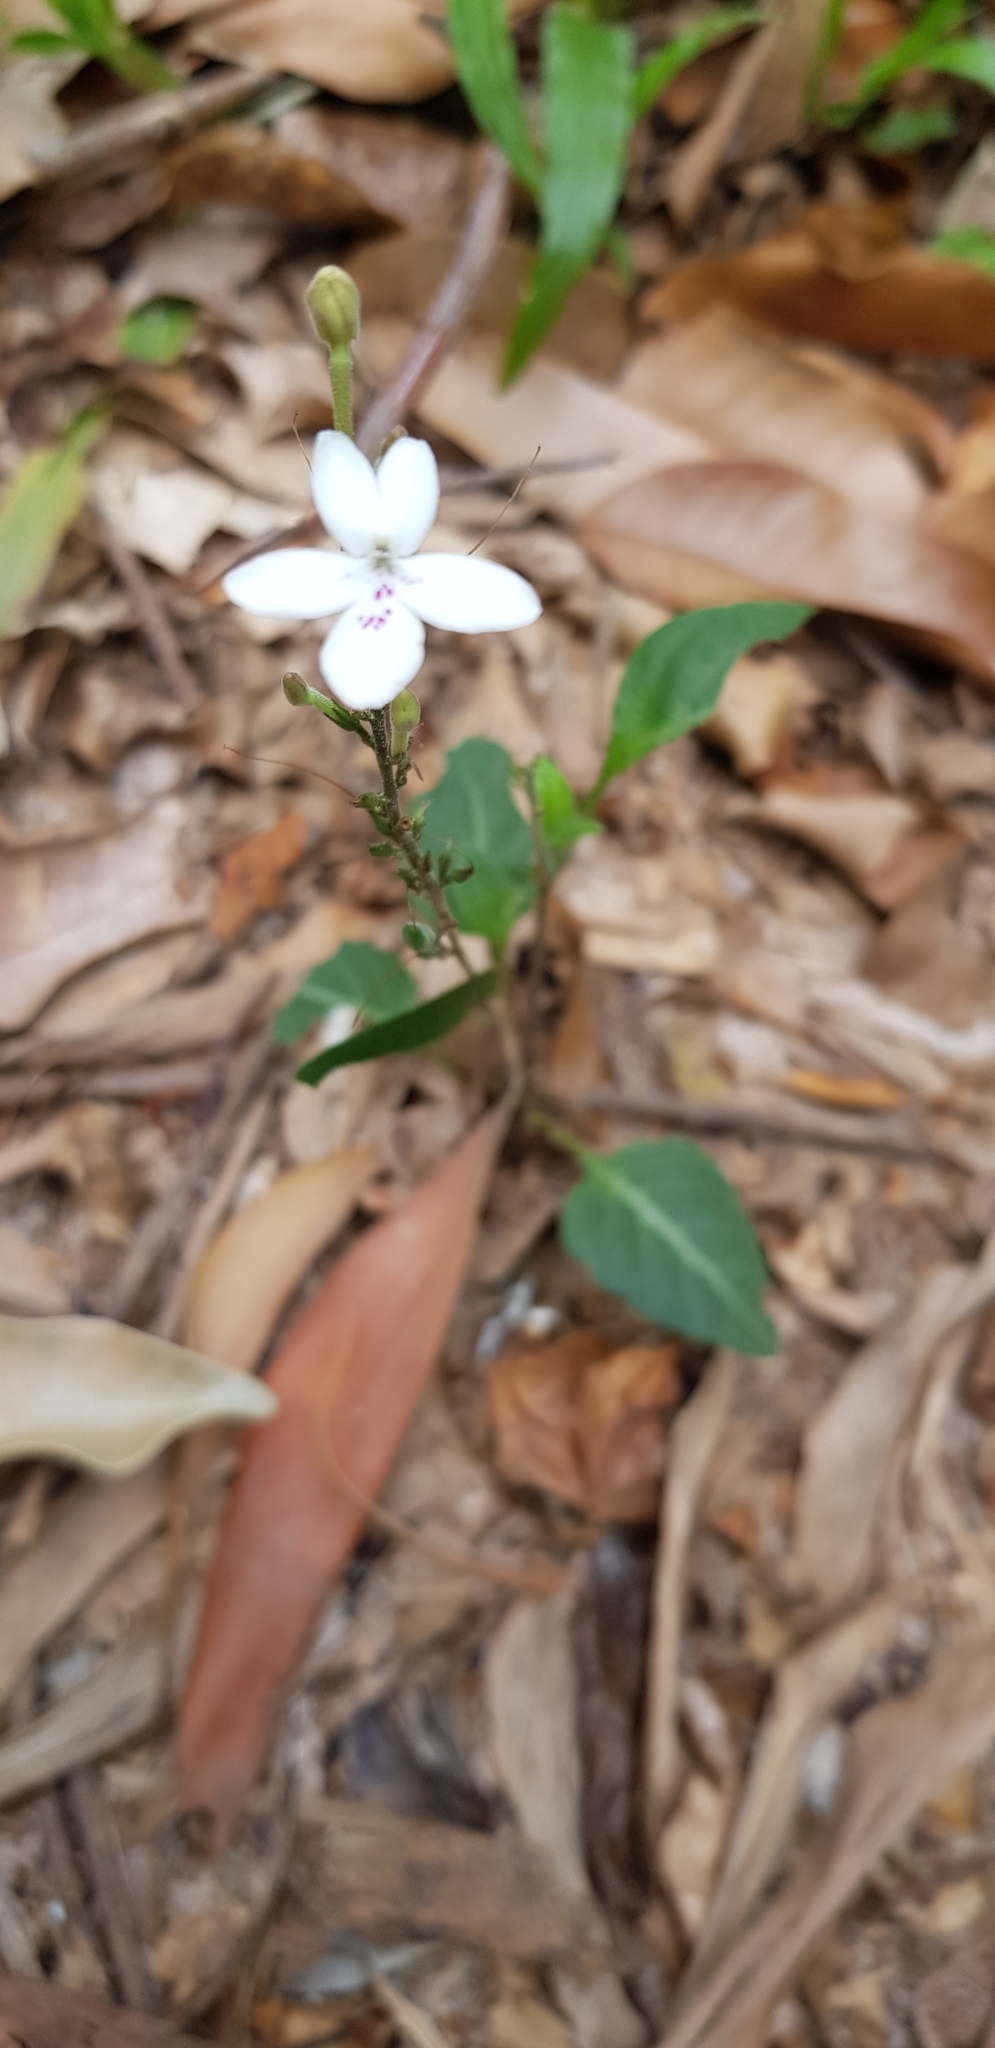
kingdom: Plantae
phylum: Tracheophyta
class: Magnoliopsida
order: Lamiales
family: Acanthaceae
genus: Pseuderanthemum
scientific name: Pseuderanthemum variabile
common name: Night and afternoon
